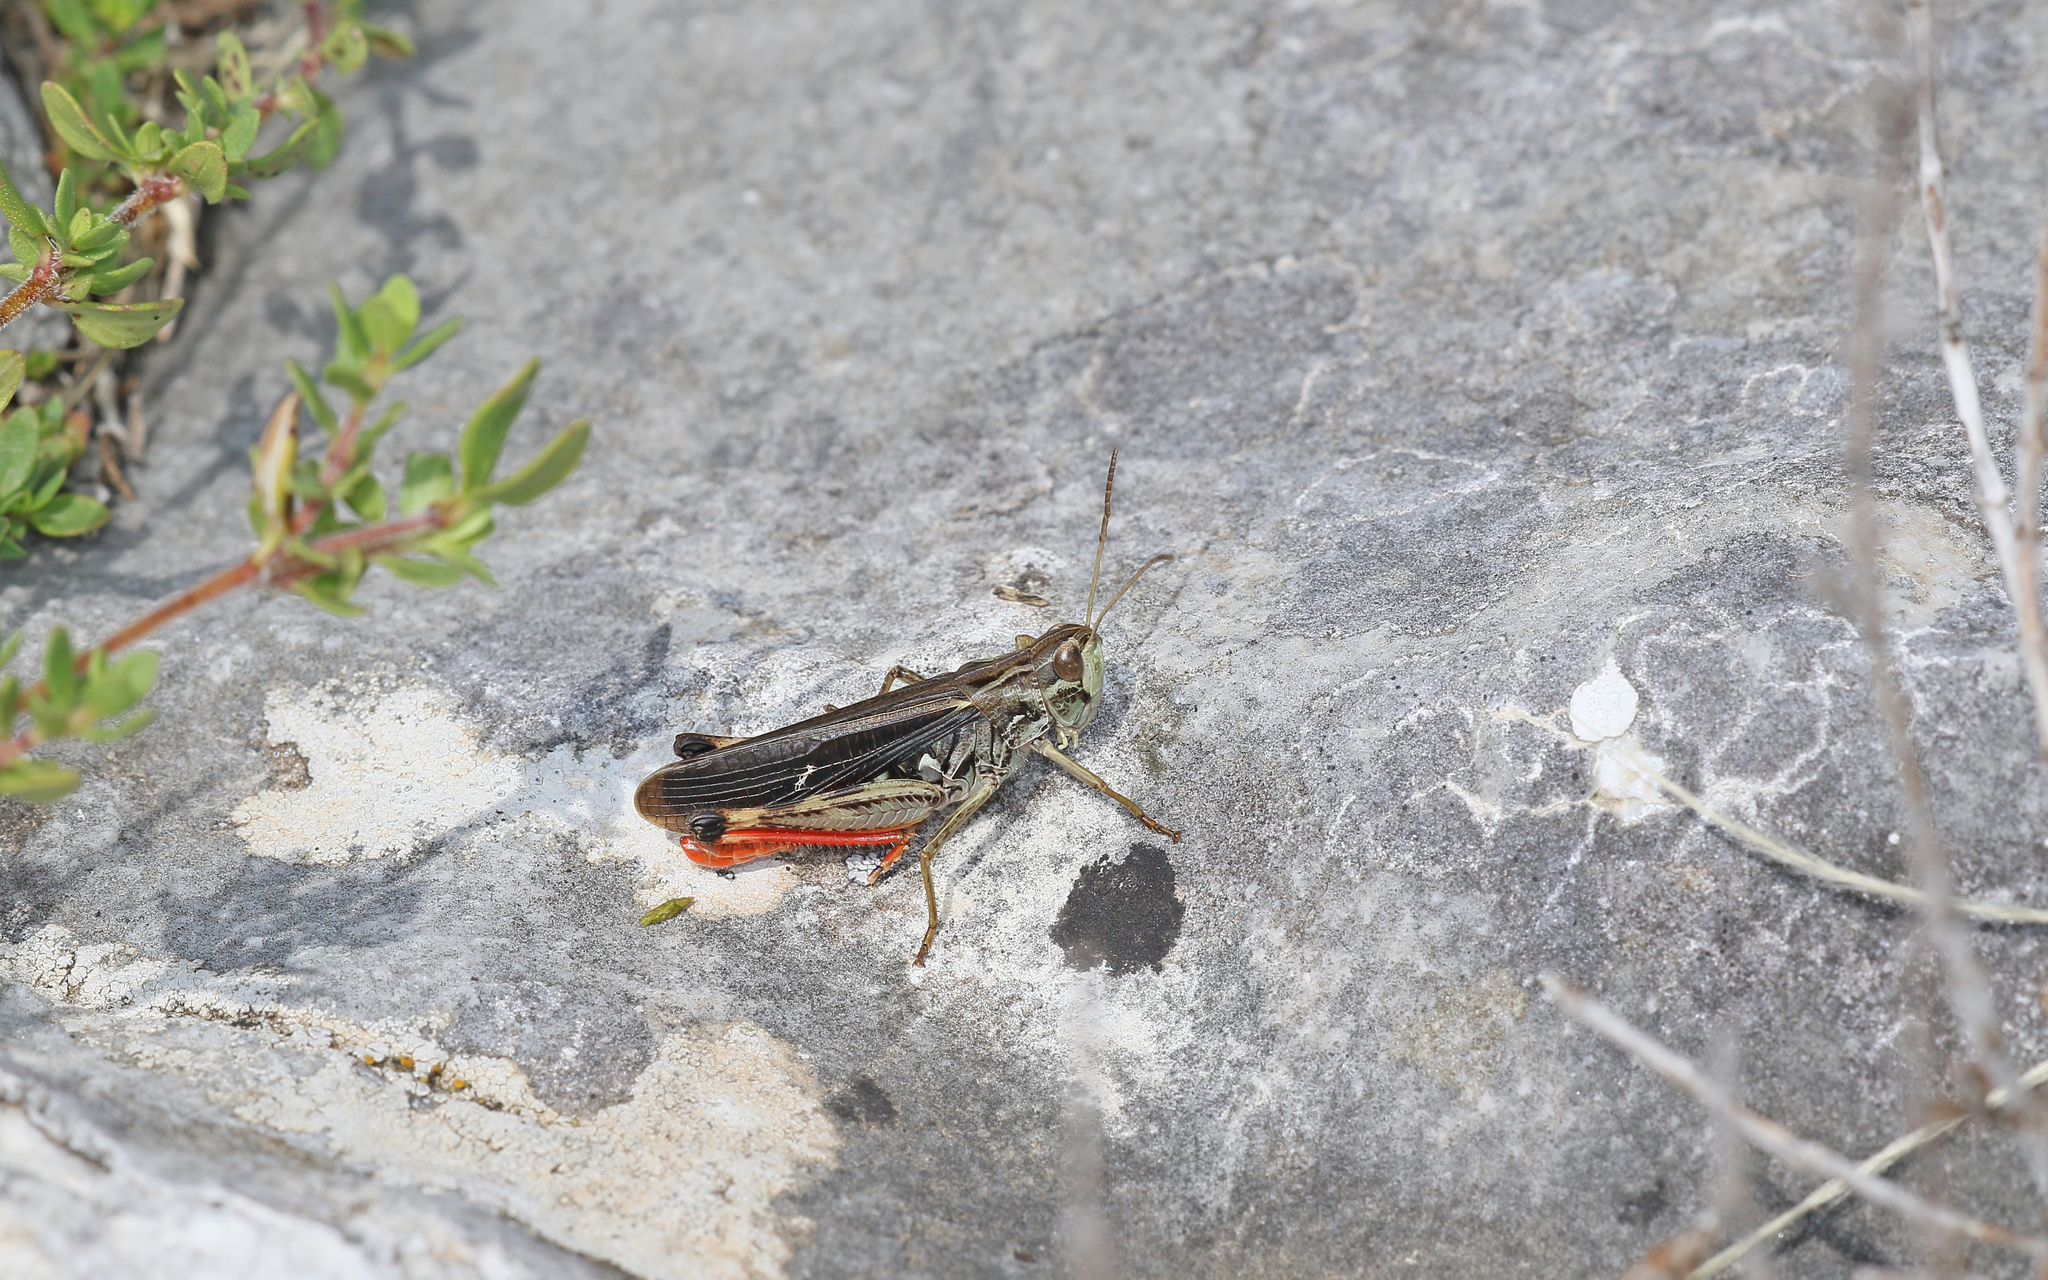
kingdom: Animalia
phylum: Arthropoda
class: Insecta
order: Orthoptera
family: Acrididae
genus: Stenobothrus
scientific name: Stenobothrus rubicundulus
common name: Wing-buzzing grasshopper
